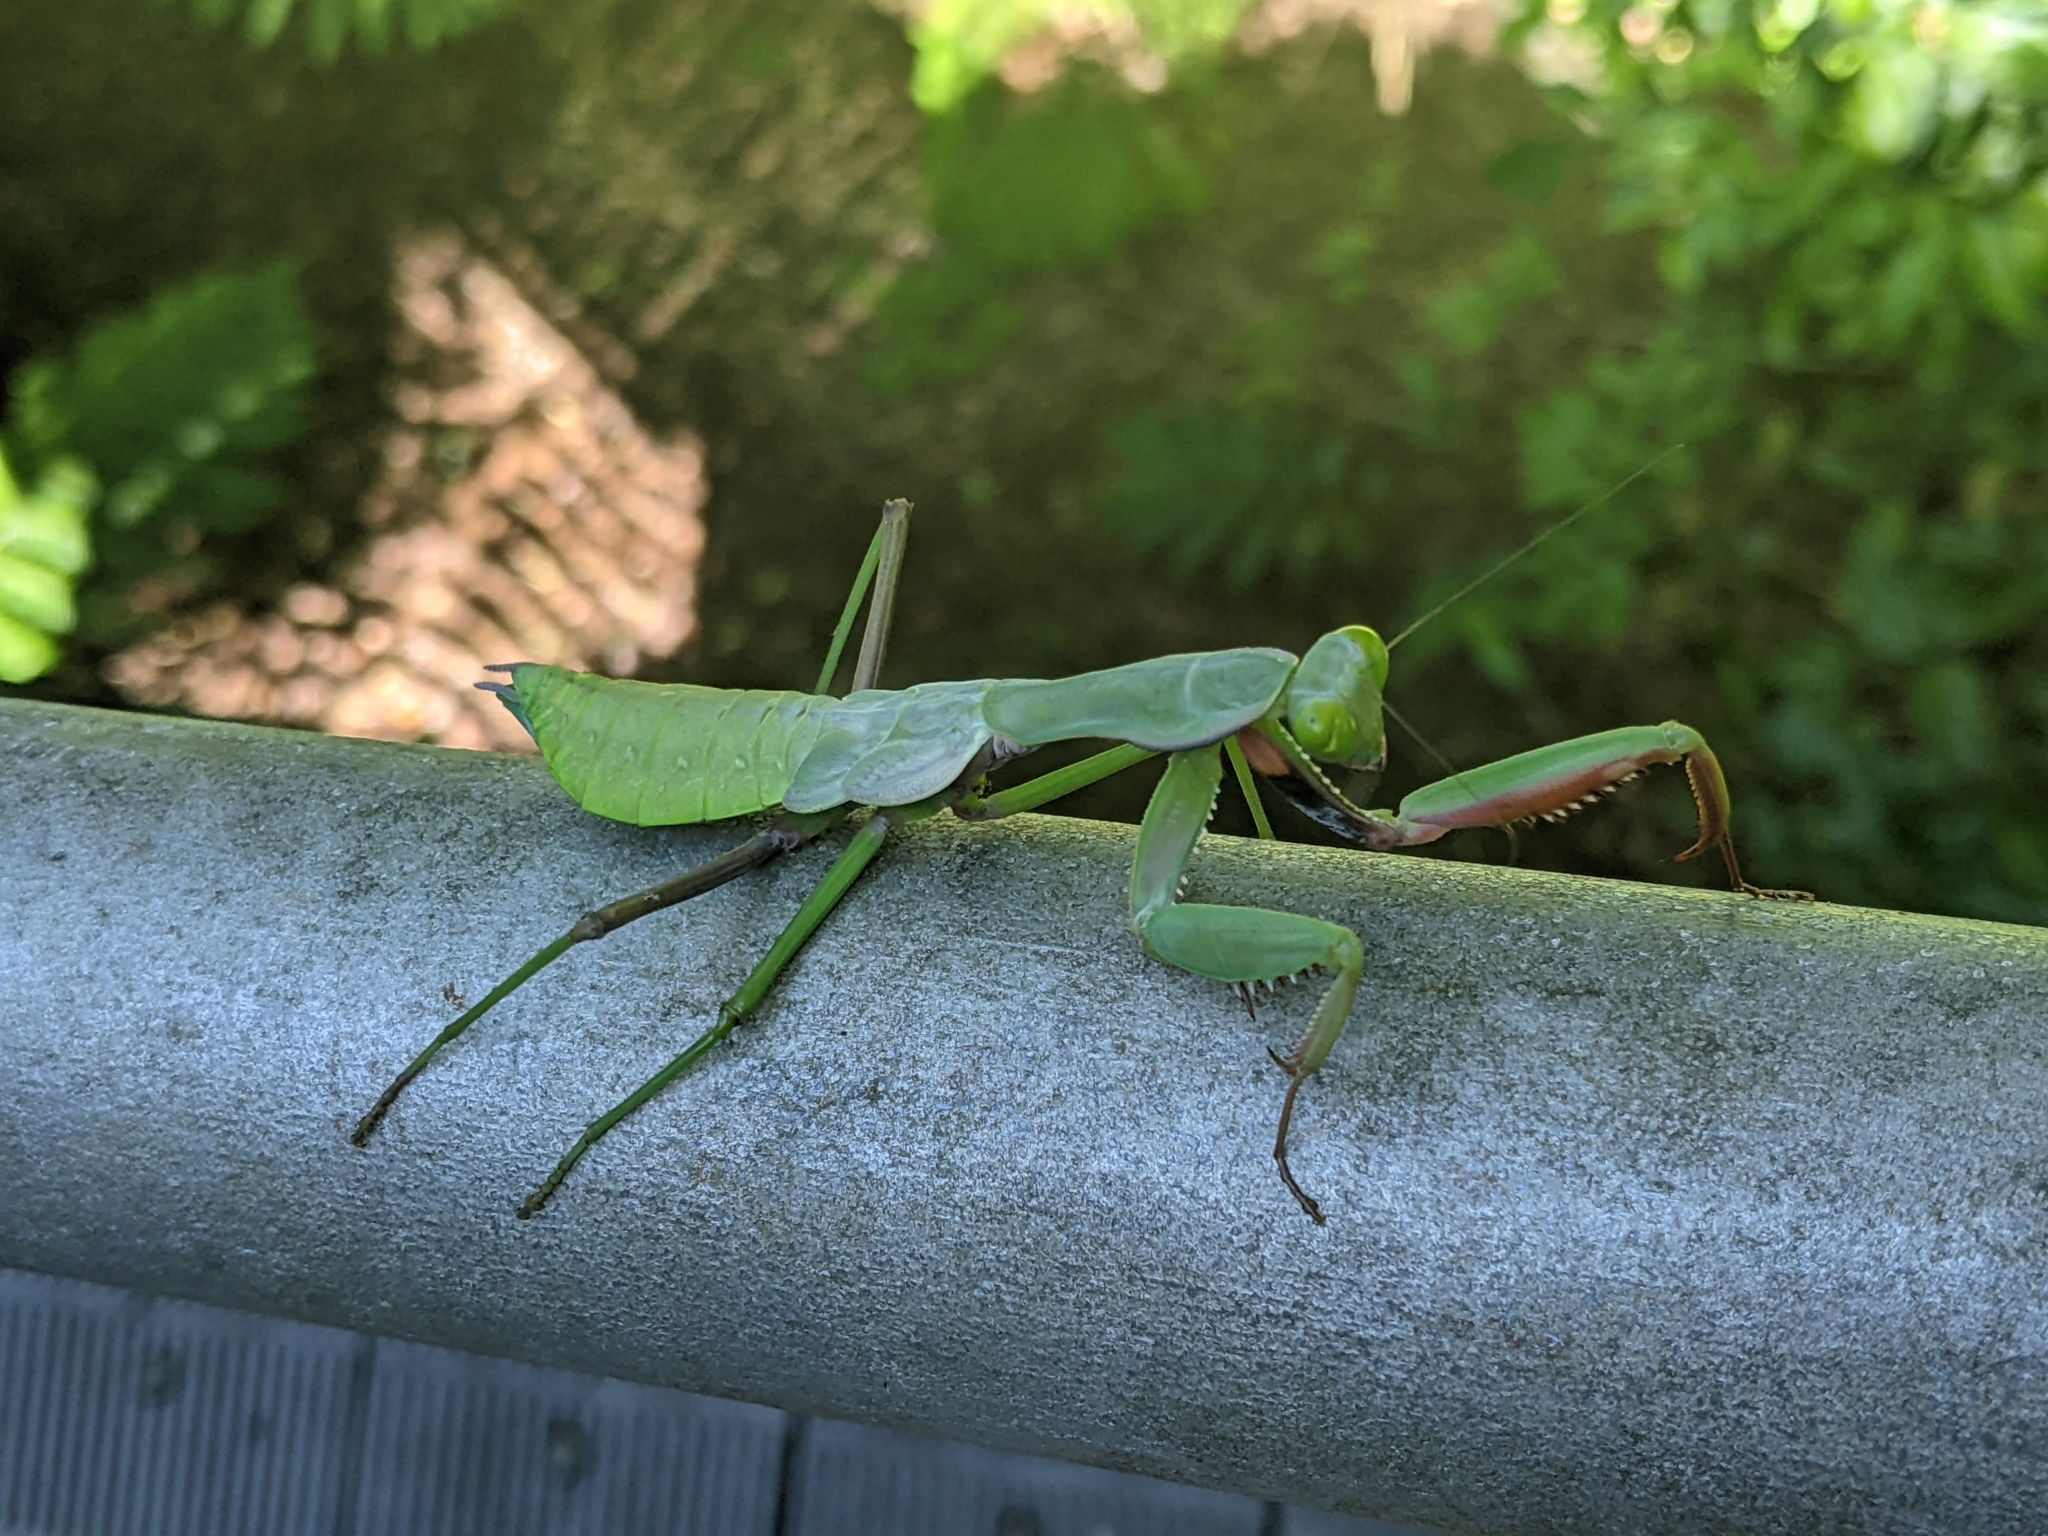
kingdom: Animalia
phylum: Arthropoda
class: Insecta
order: Mantodea
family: Mantidae
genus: Hierodula
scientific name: Hierodula majuscula
